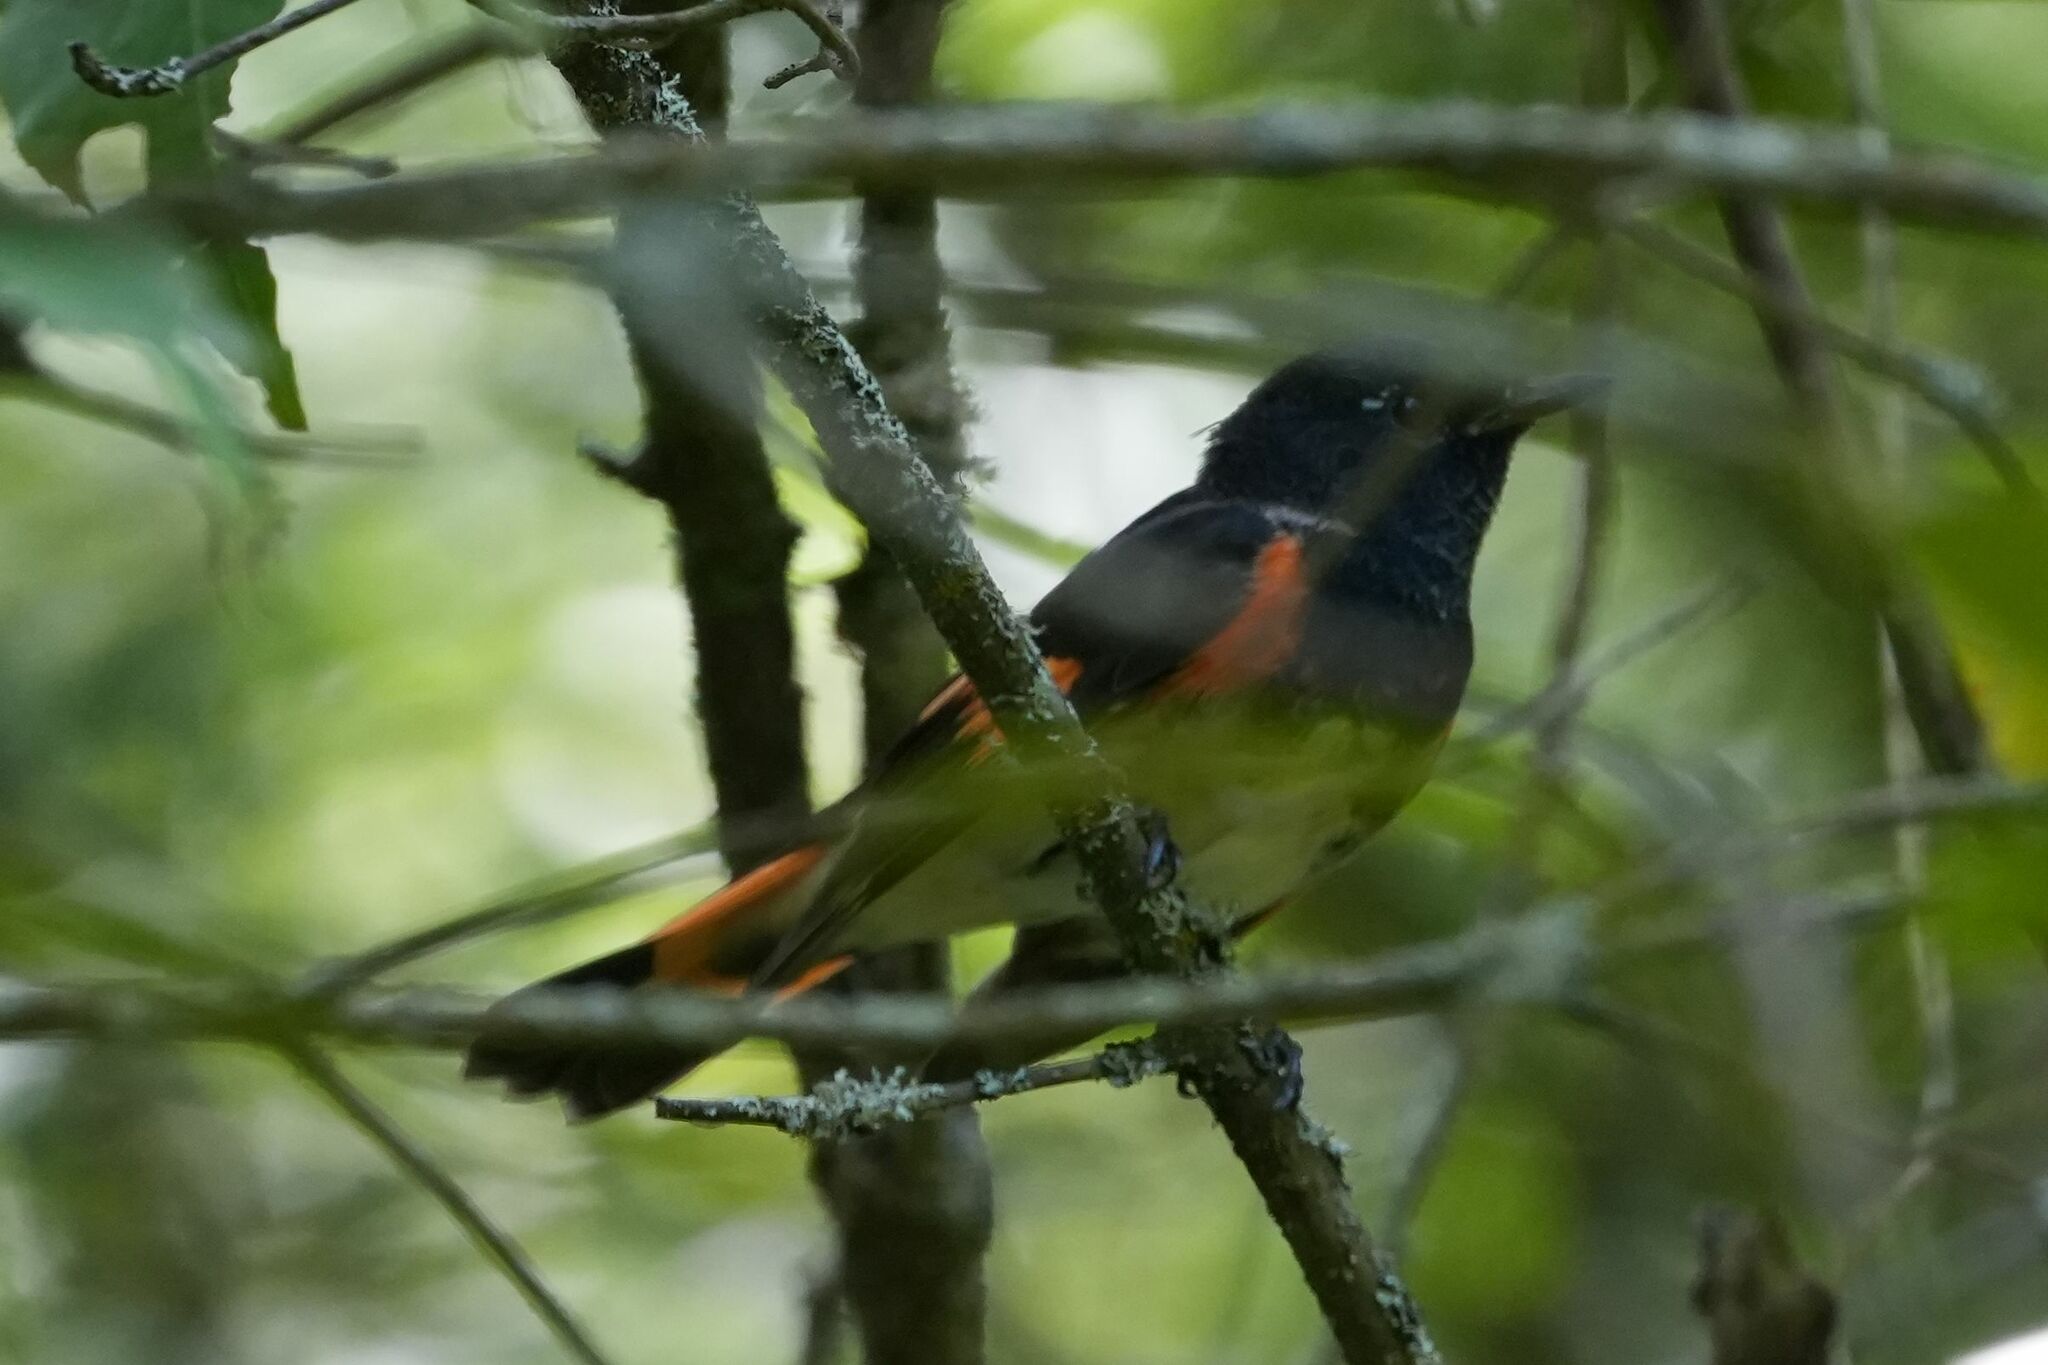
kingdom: Animalia
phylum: Chordata
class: Aves
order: Passeriformes
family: Parulidae
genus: Setophaga
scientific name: Setophaga ruticilla
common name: American redstart
